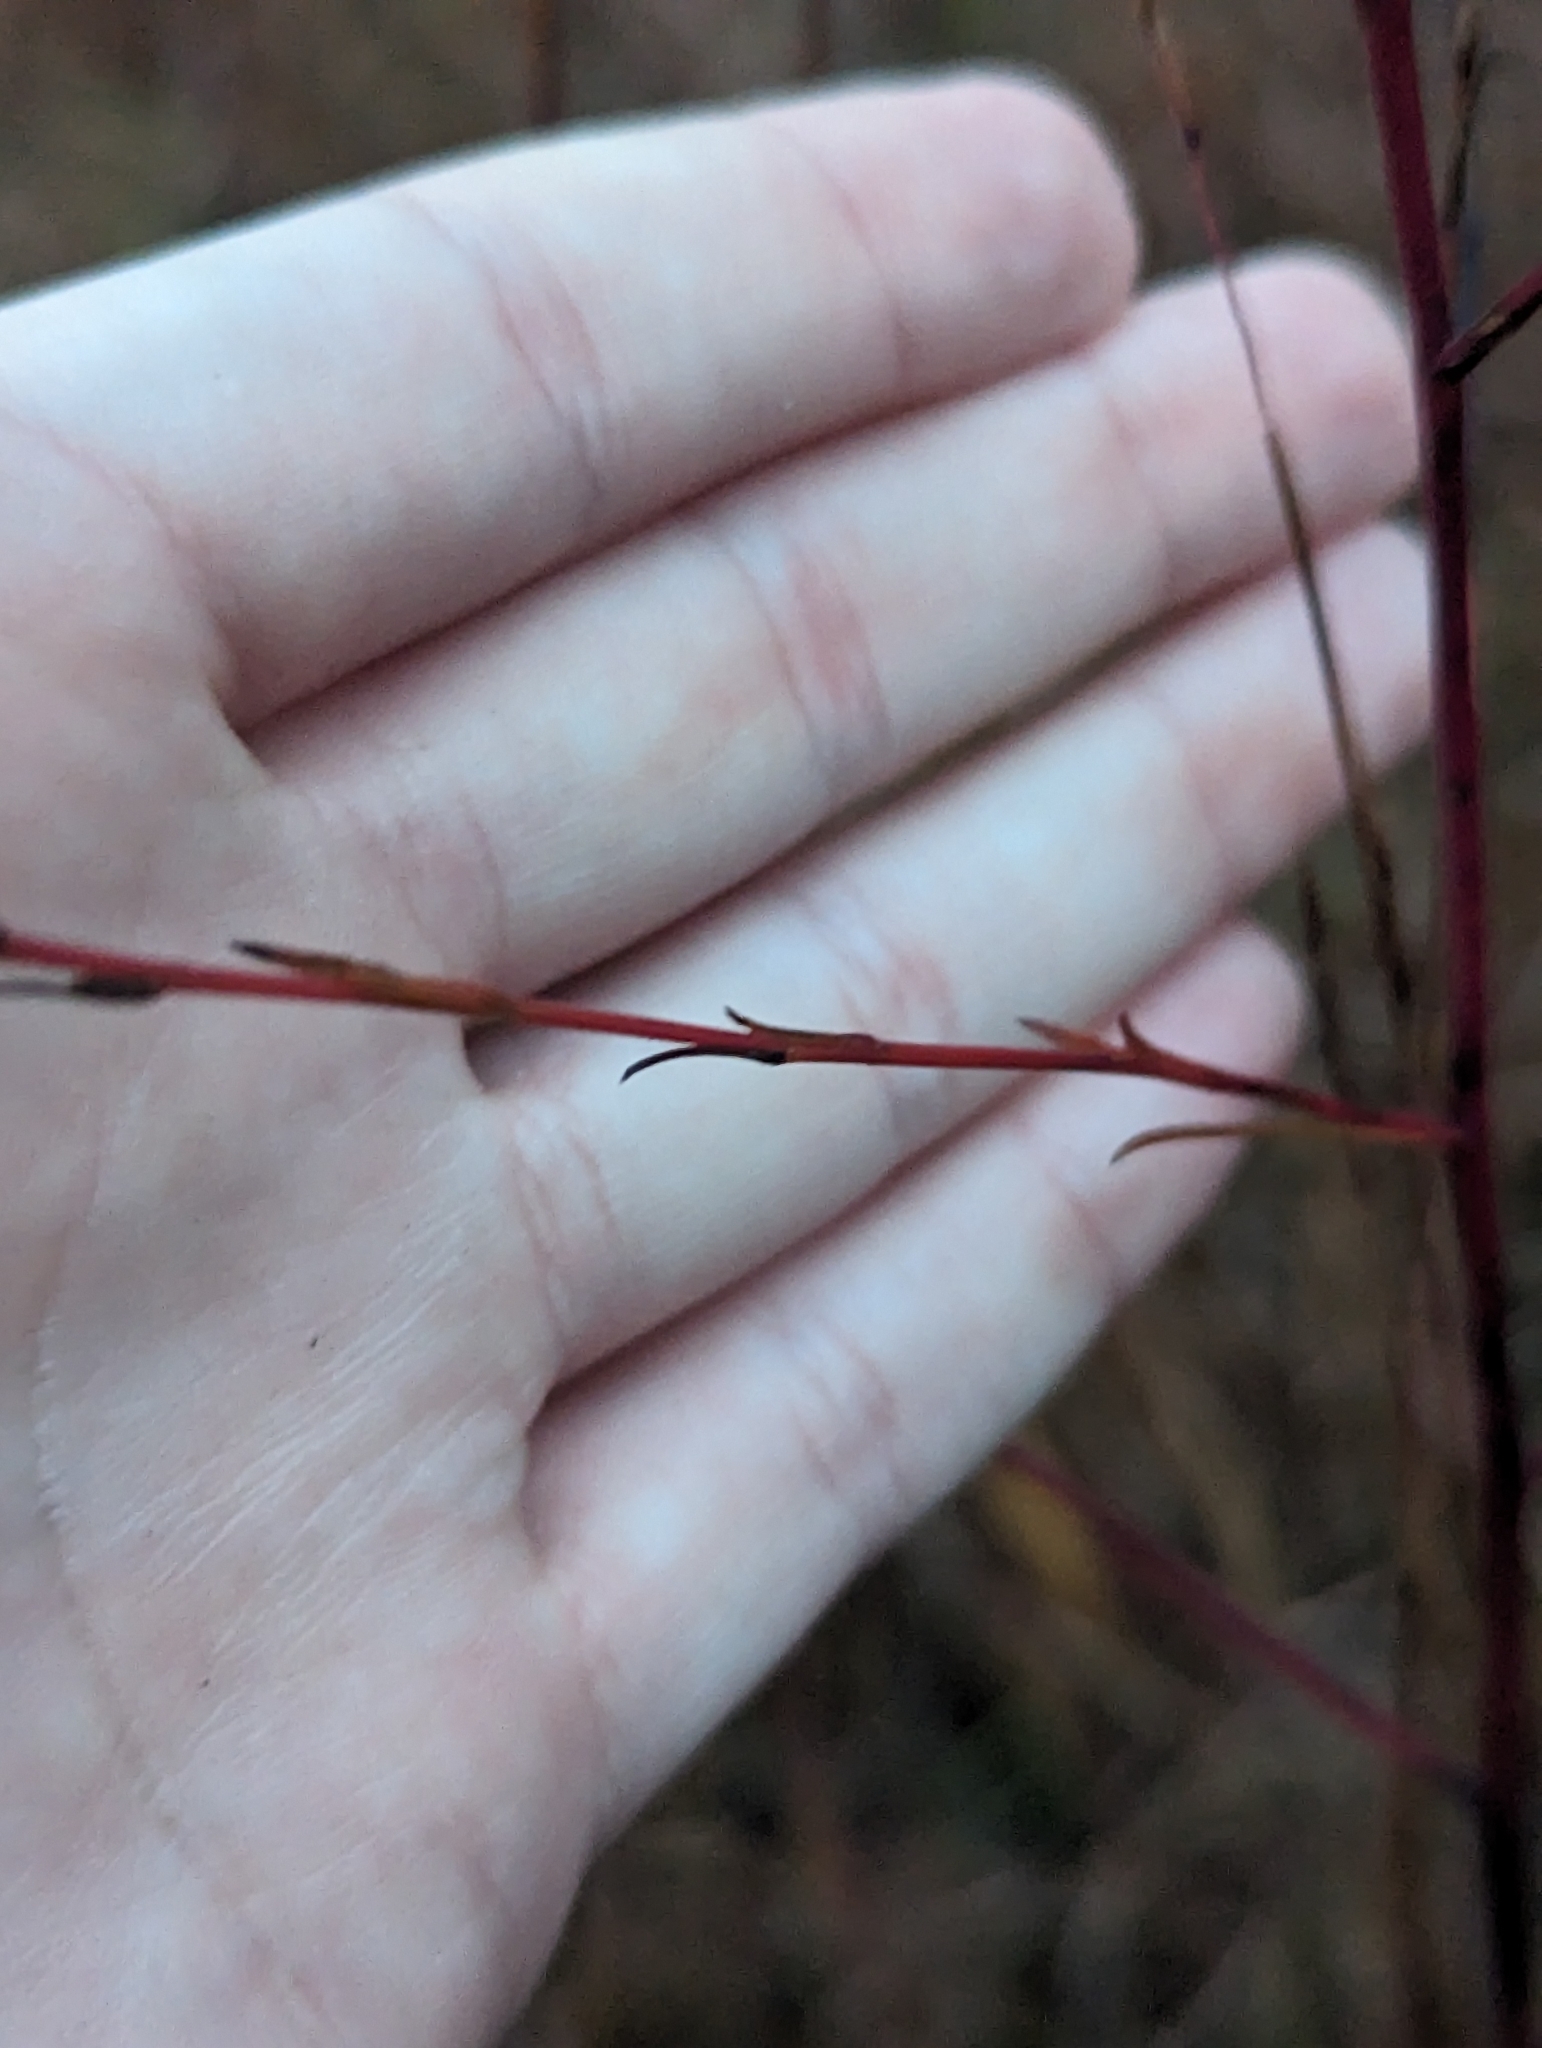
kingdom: Plantae
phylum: Tracheophyta
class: Magnoliopsida
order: Asterales
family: Asteraceae
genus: Symphyotrichum
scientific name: Symphyotrichum oolentangiense
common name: Azure aster
